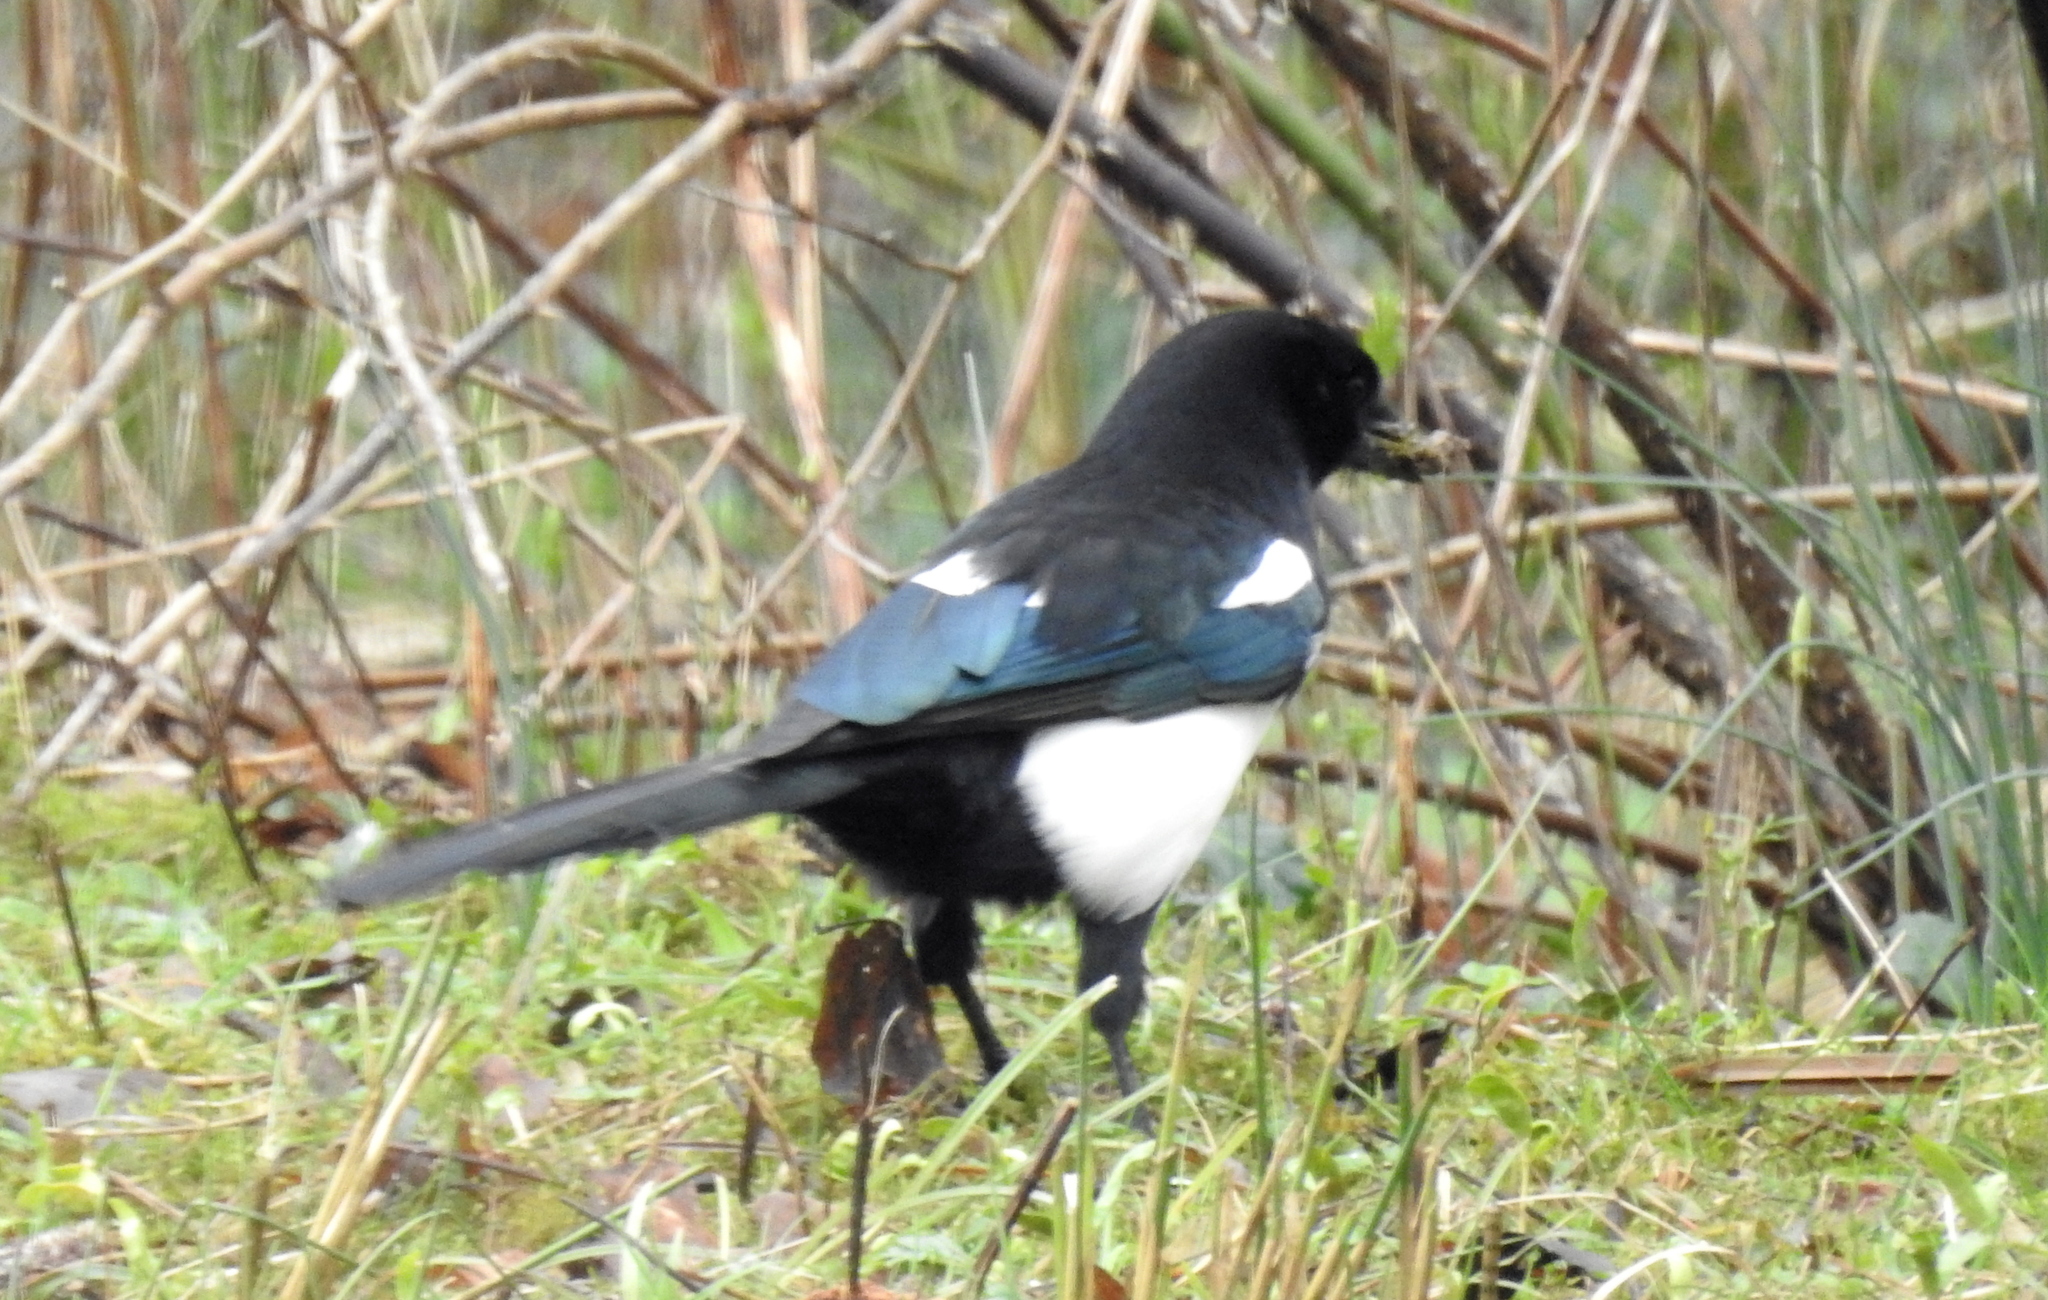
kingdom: Animalia
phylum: Chordata
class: Aves
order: Passeriformes
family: Corvidae
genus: Pica
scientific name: Pica pica
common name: Eurasian magpie
